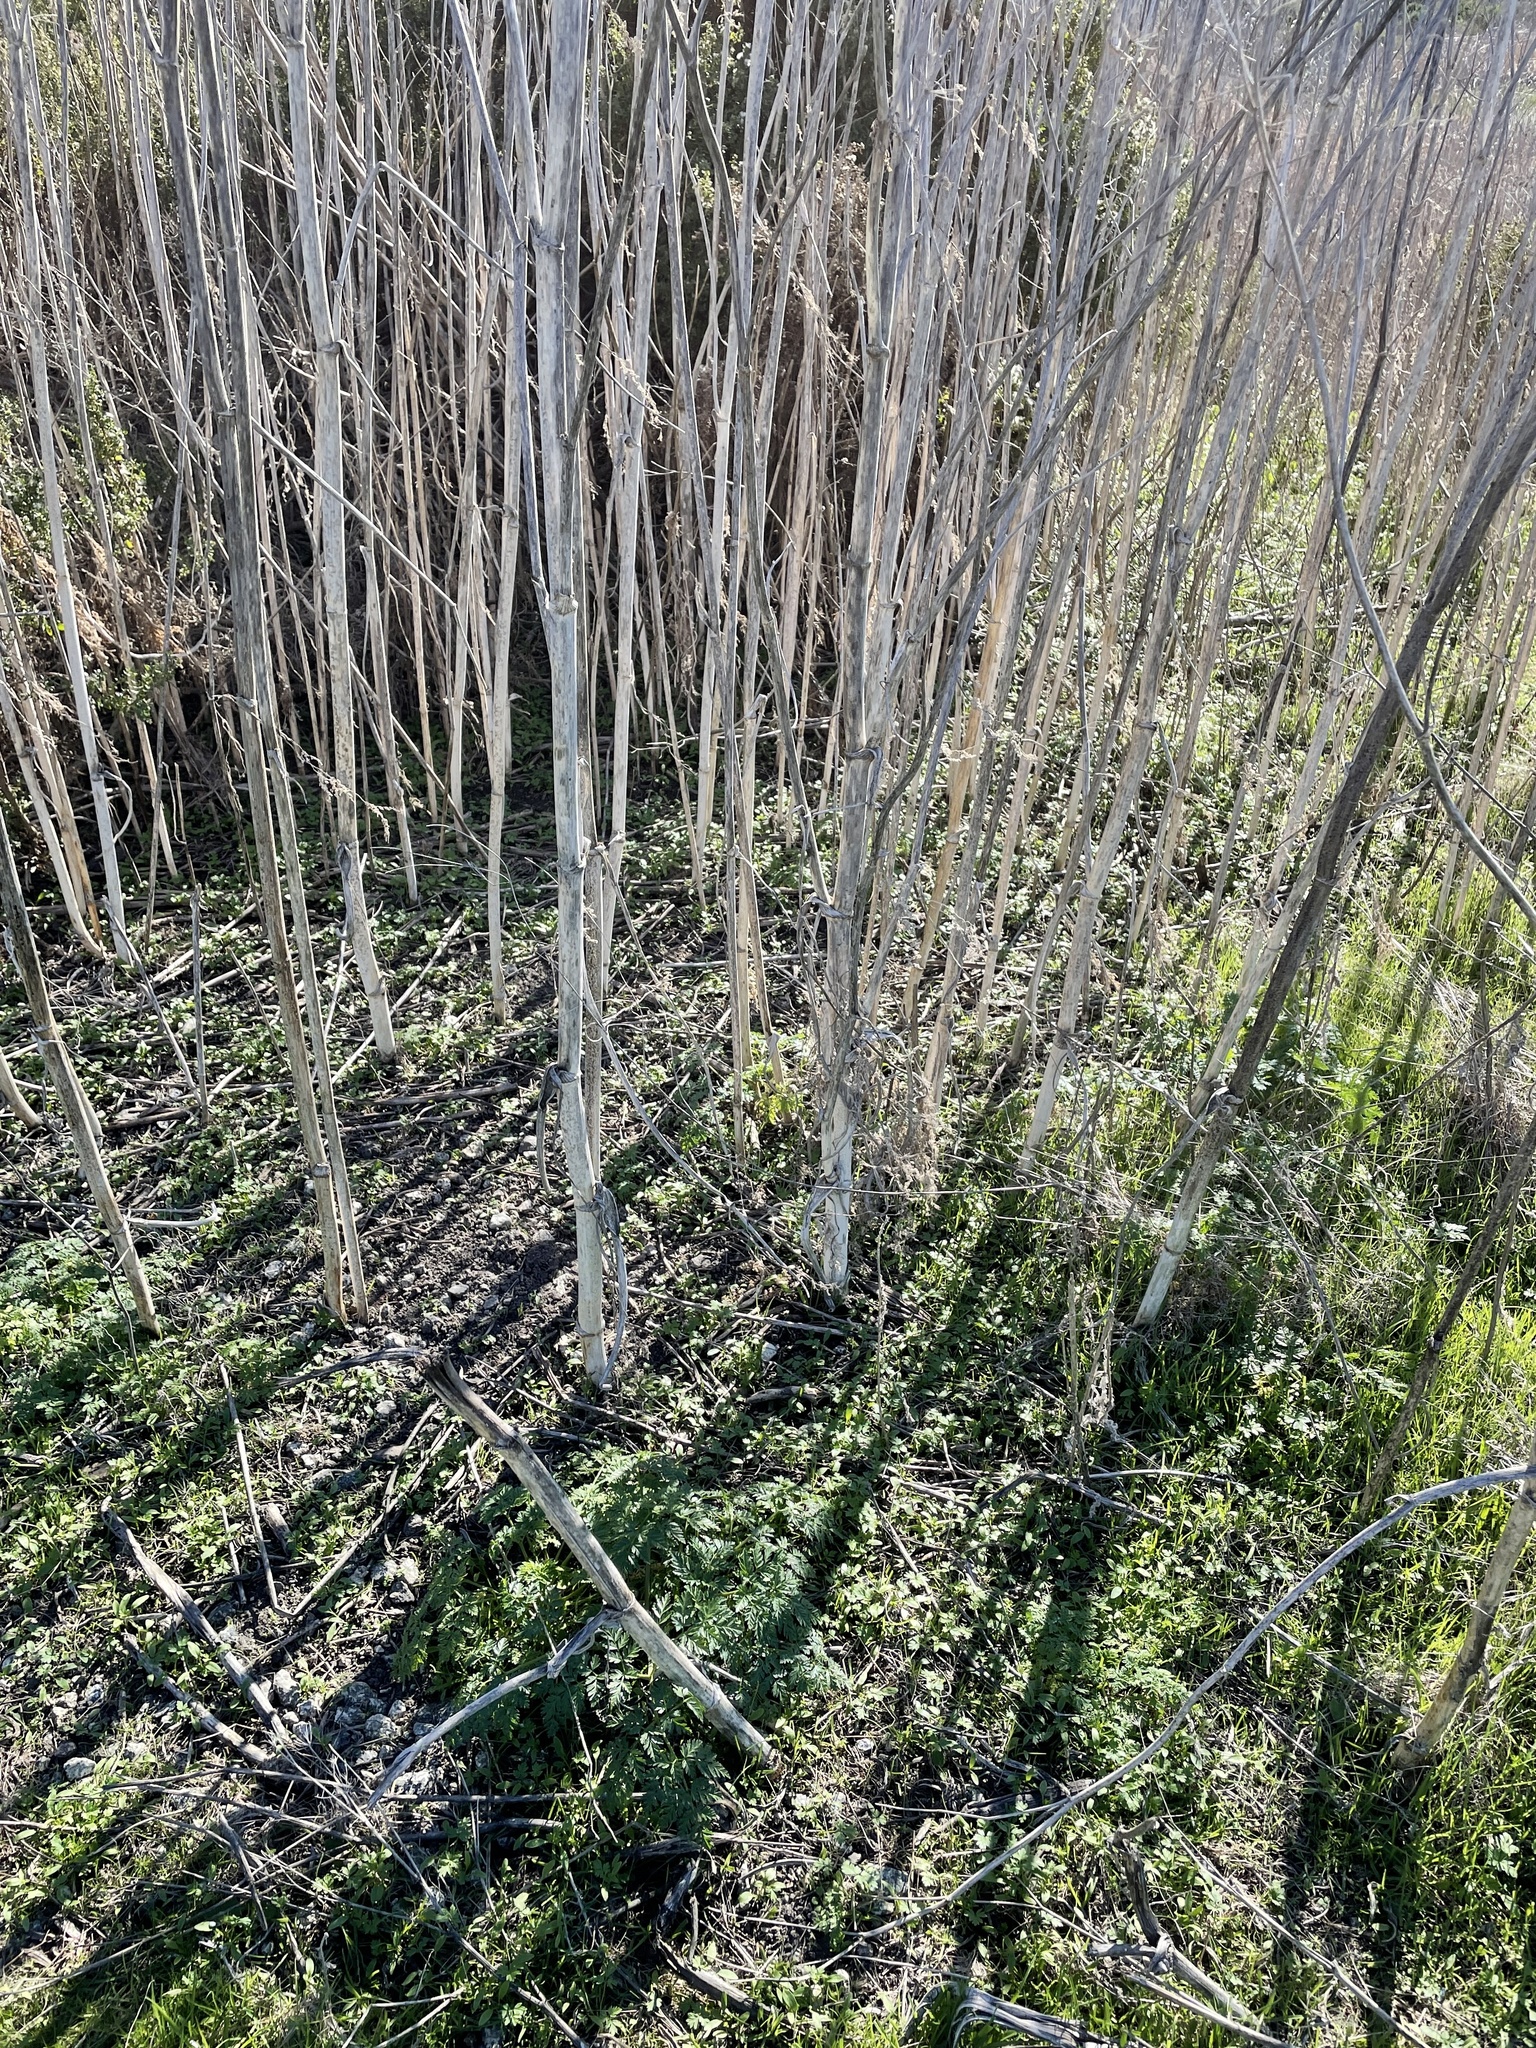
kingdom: Plantae
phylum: Tracheophyta
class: Magnoliopsida
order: Apiales
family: Apiaceae
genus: Conium
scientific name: Conium maculatum
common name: Hemlock
